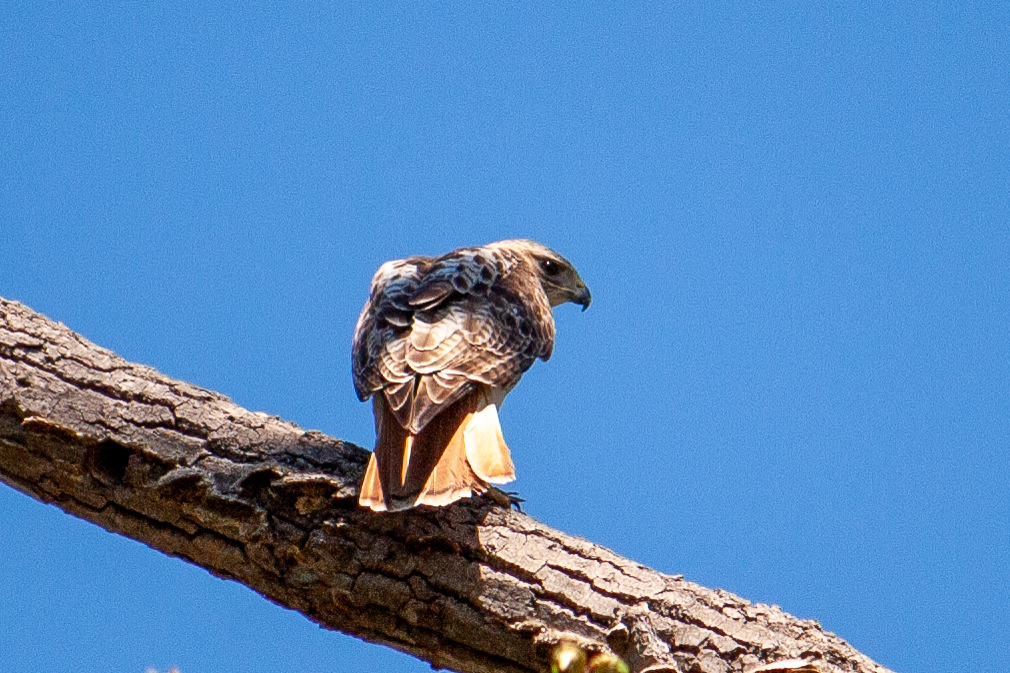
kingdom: Animalia
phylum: Chordata
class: Aves
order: Accipitriformes
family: Accipitridae
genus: Buteo
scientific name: Buteo jamaicensis
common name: Red-tailed hawk
